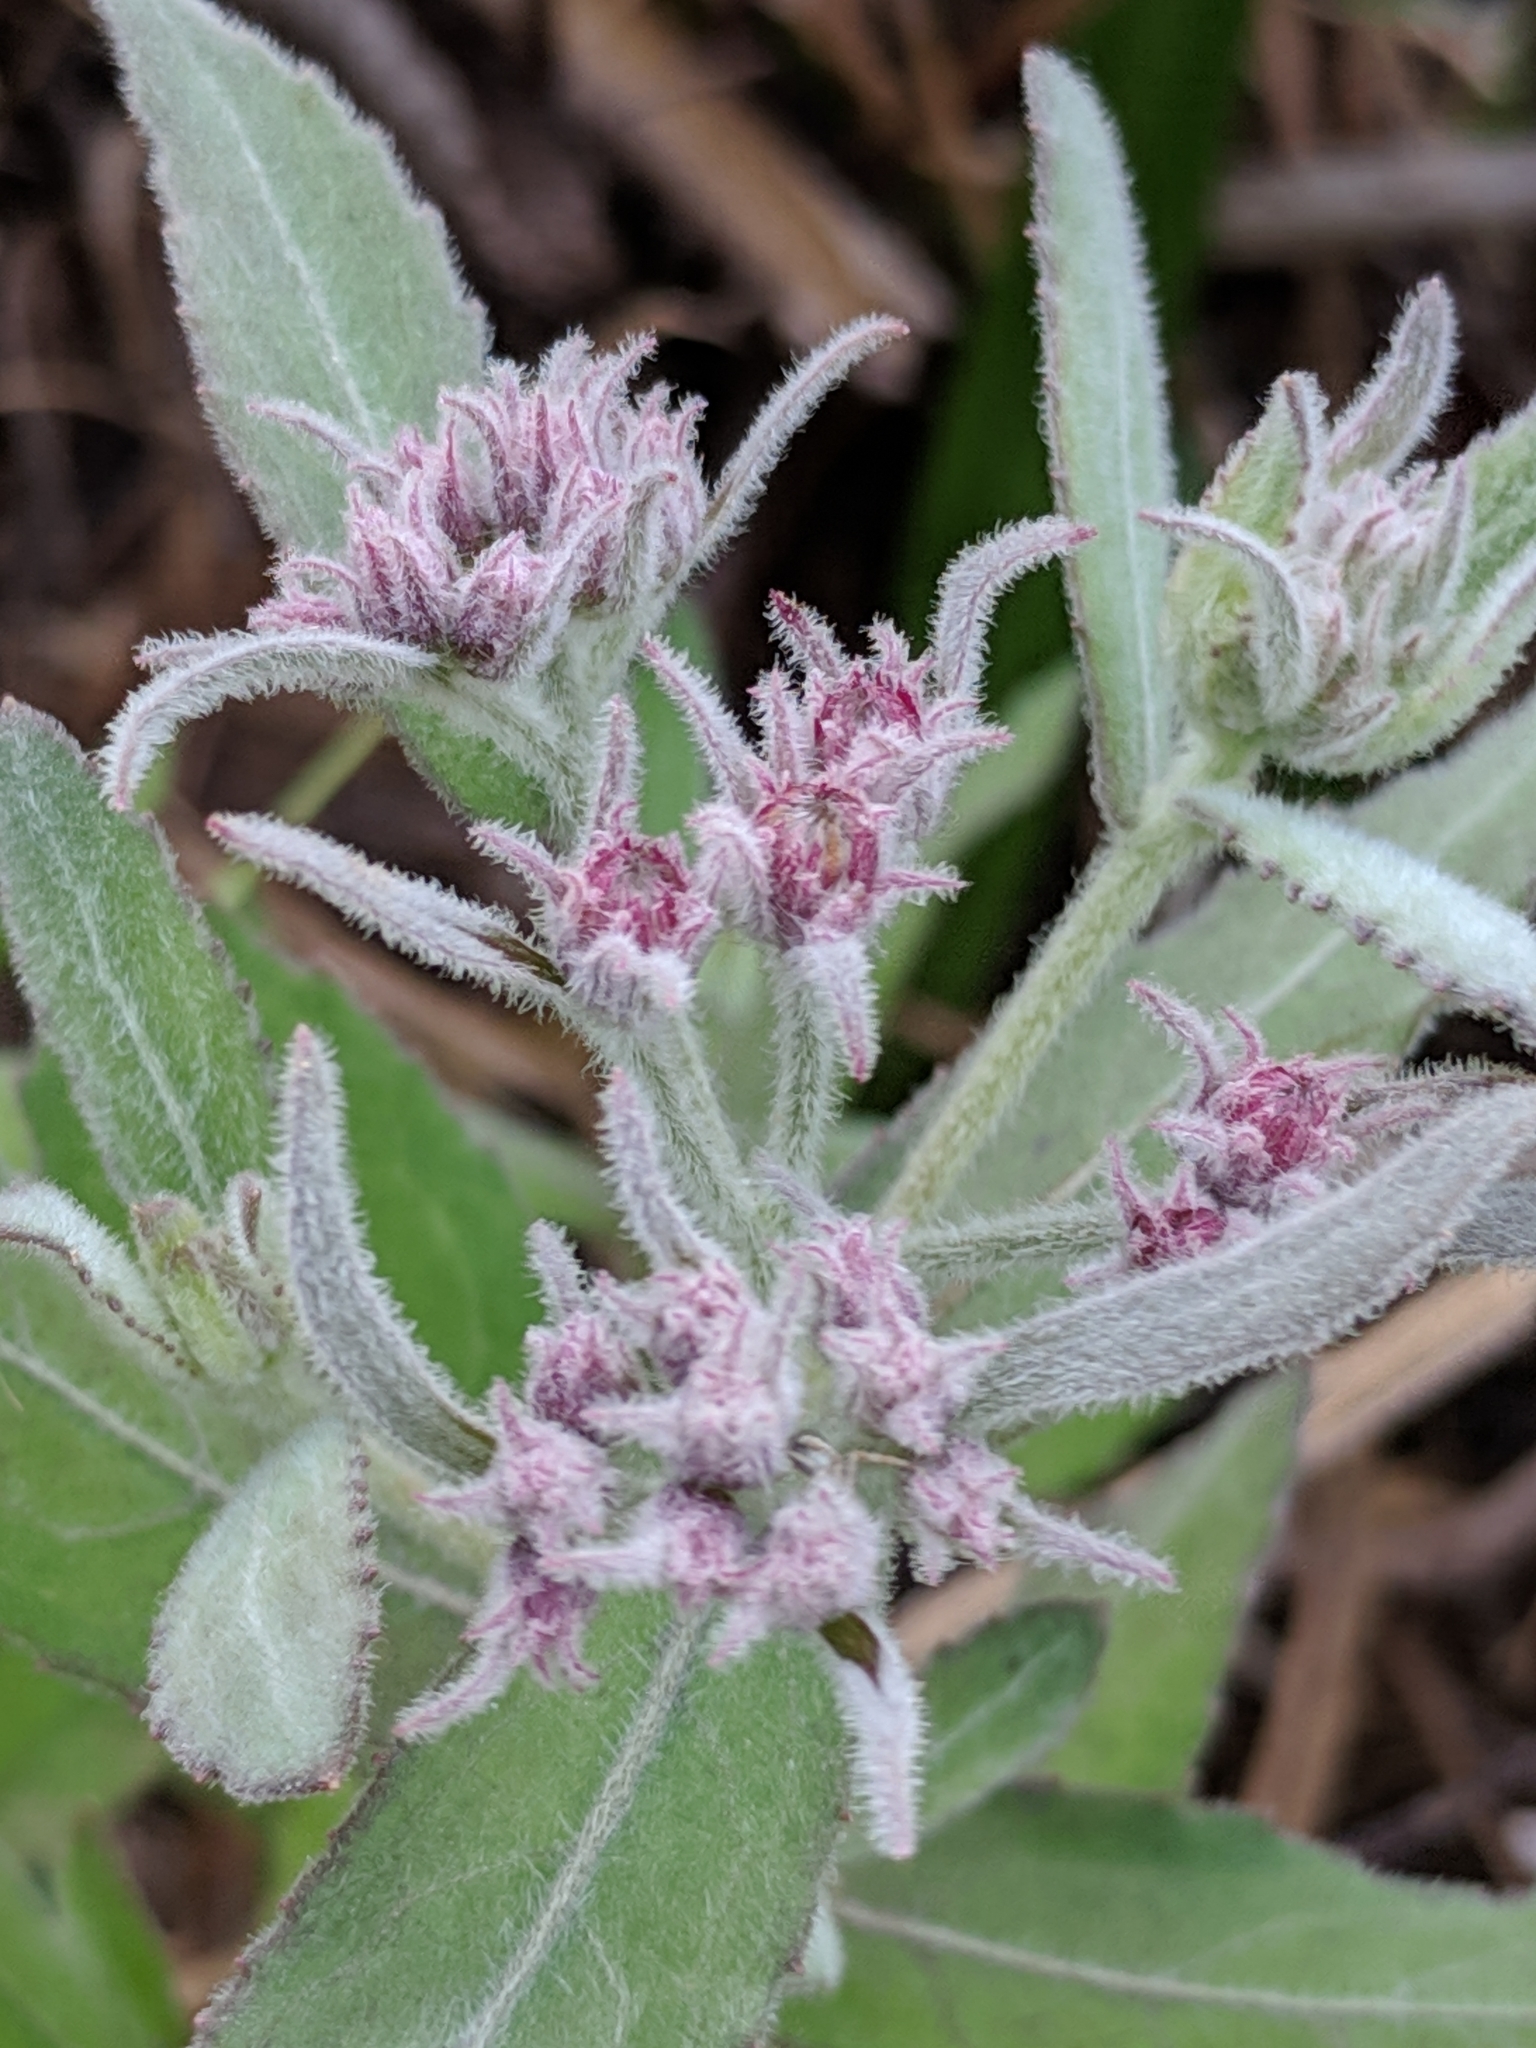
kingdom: Plantae
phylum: Tracheophyta
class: Magnoliopsida
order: Asterales
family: Asteraceae
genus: Pluchea
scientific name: Pluchea baccharis
